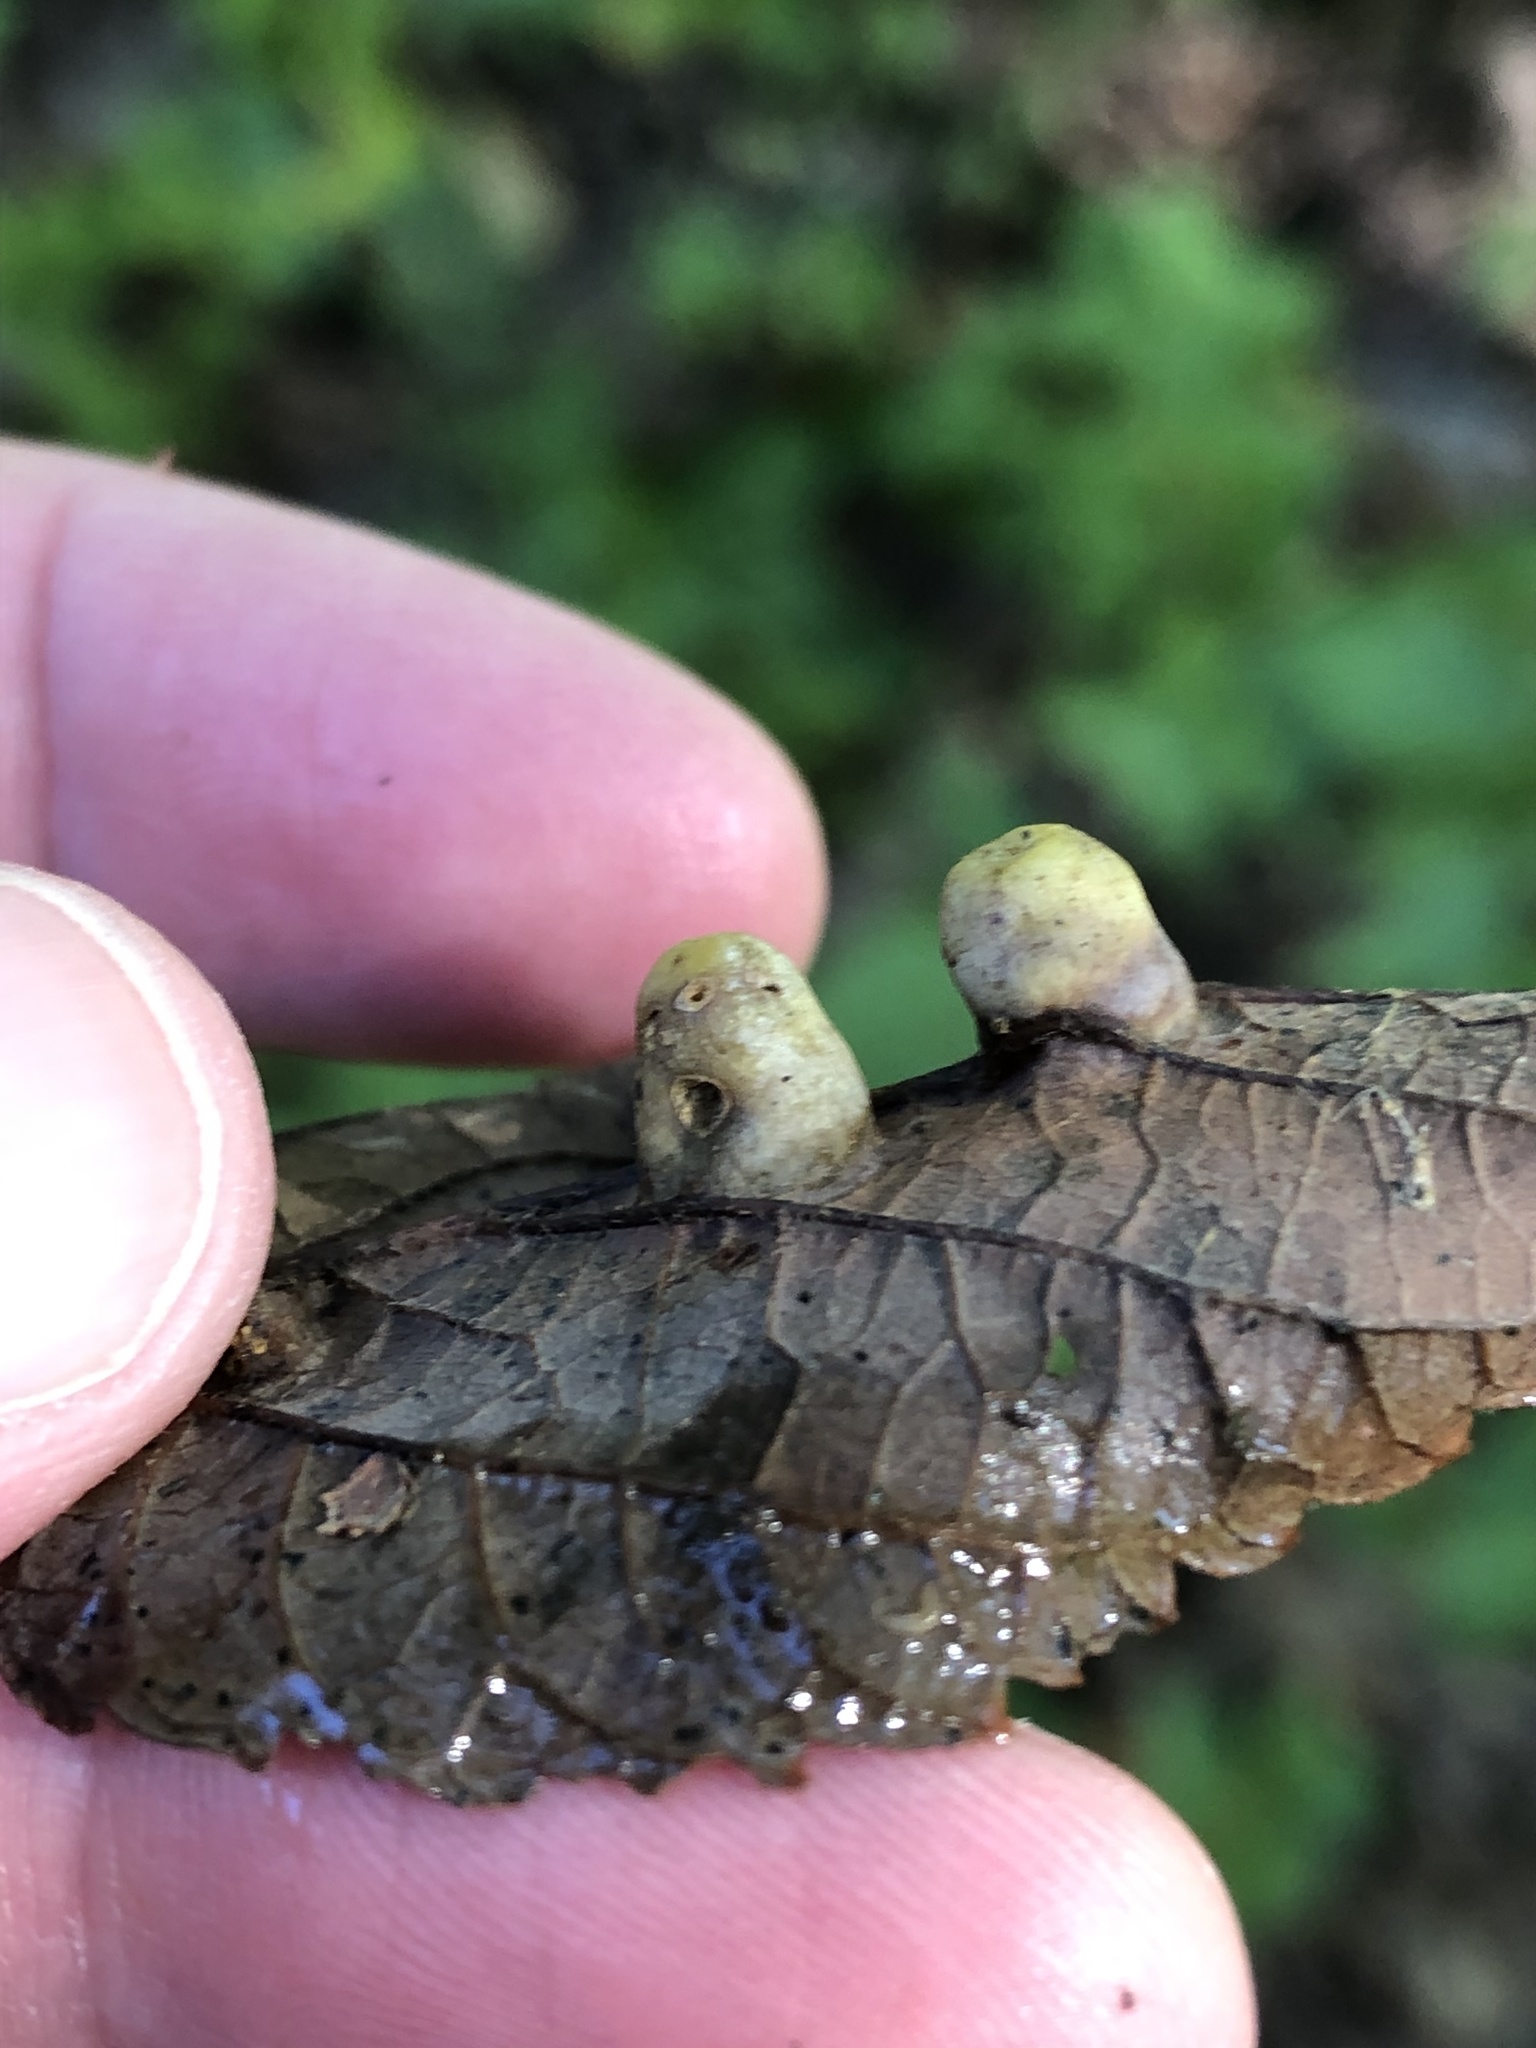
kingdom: Animalia
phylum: Arthropoda
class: Insecta
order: Hemiptera
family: Aphalaridae
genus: Pachypsylla
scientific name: Pachypsylla celtidismamma
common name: Hackberry nipplegall psyllid
